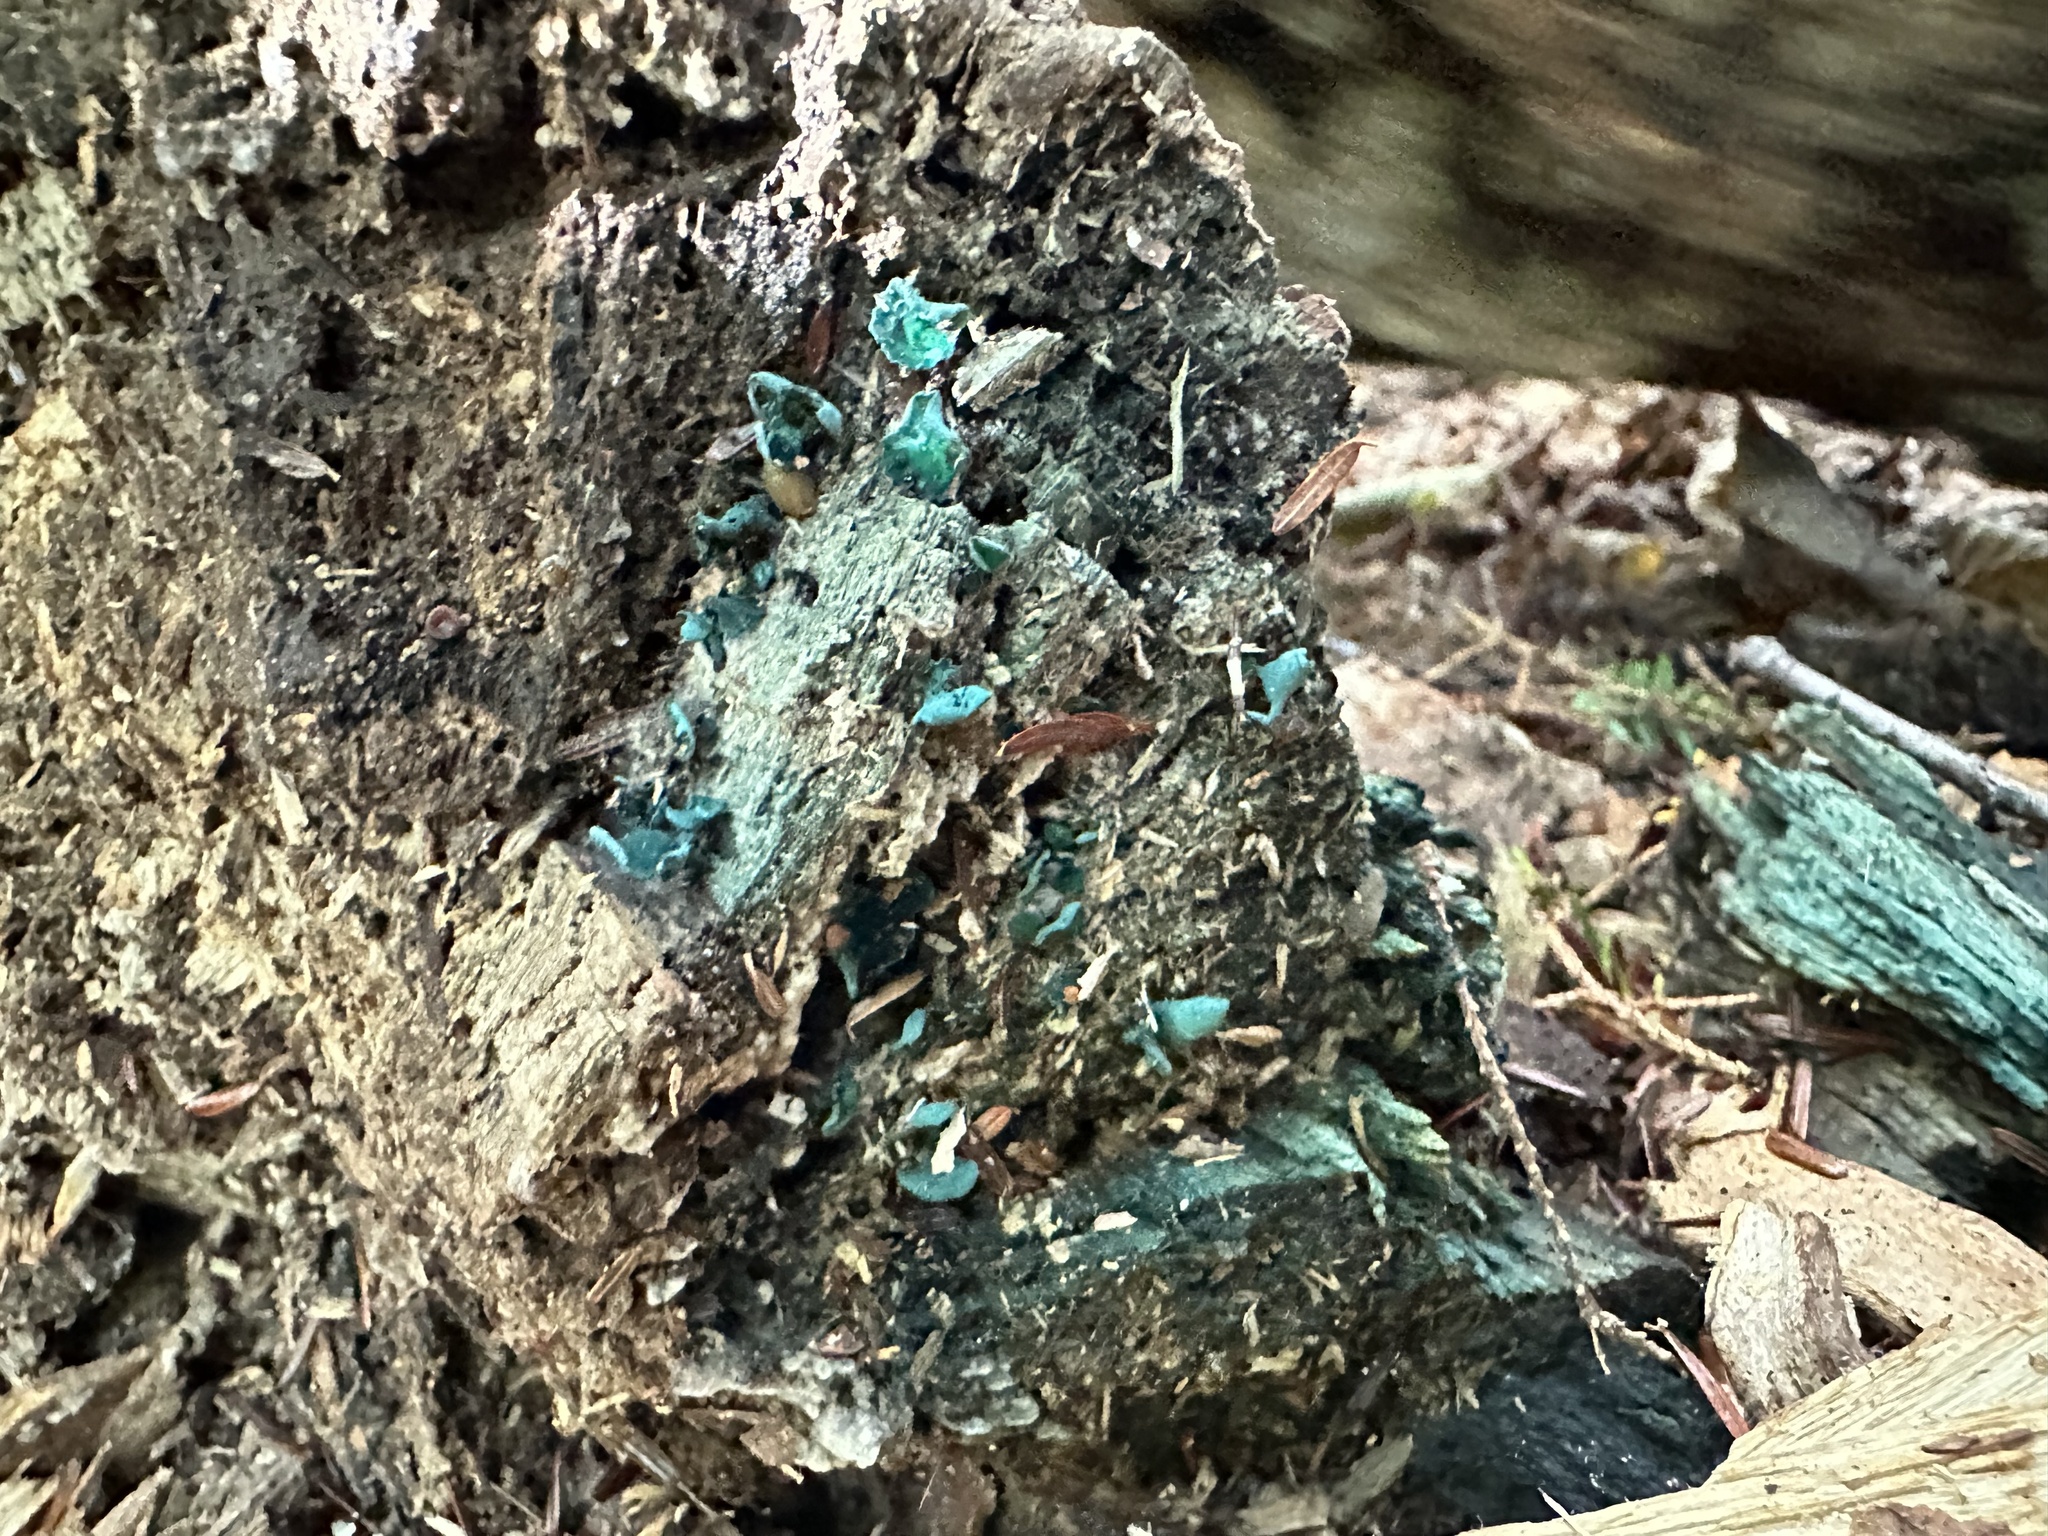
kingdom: Fungi
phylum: Ascomycota
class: Leotiomycetes
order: Helotiales
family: Chlorociboriaceae
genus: Chlorociboria
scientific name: Chlorociboria aeruginascens
